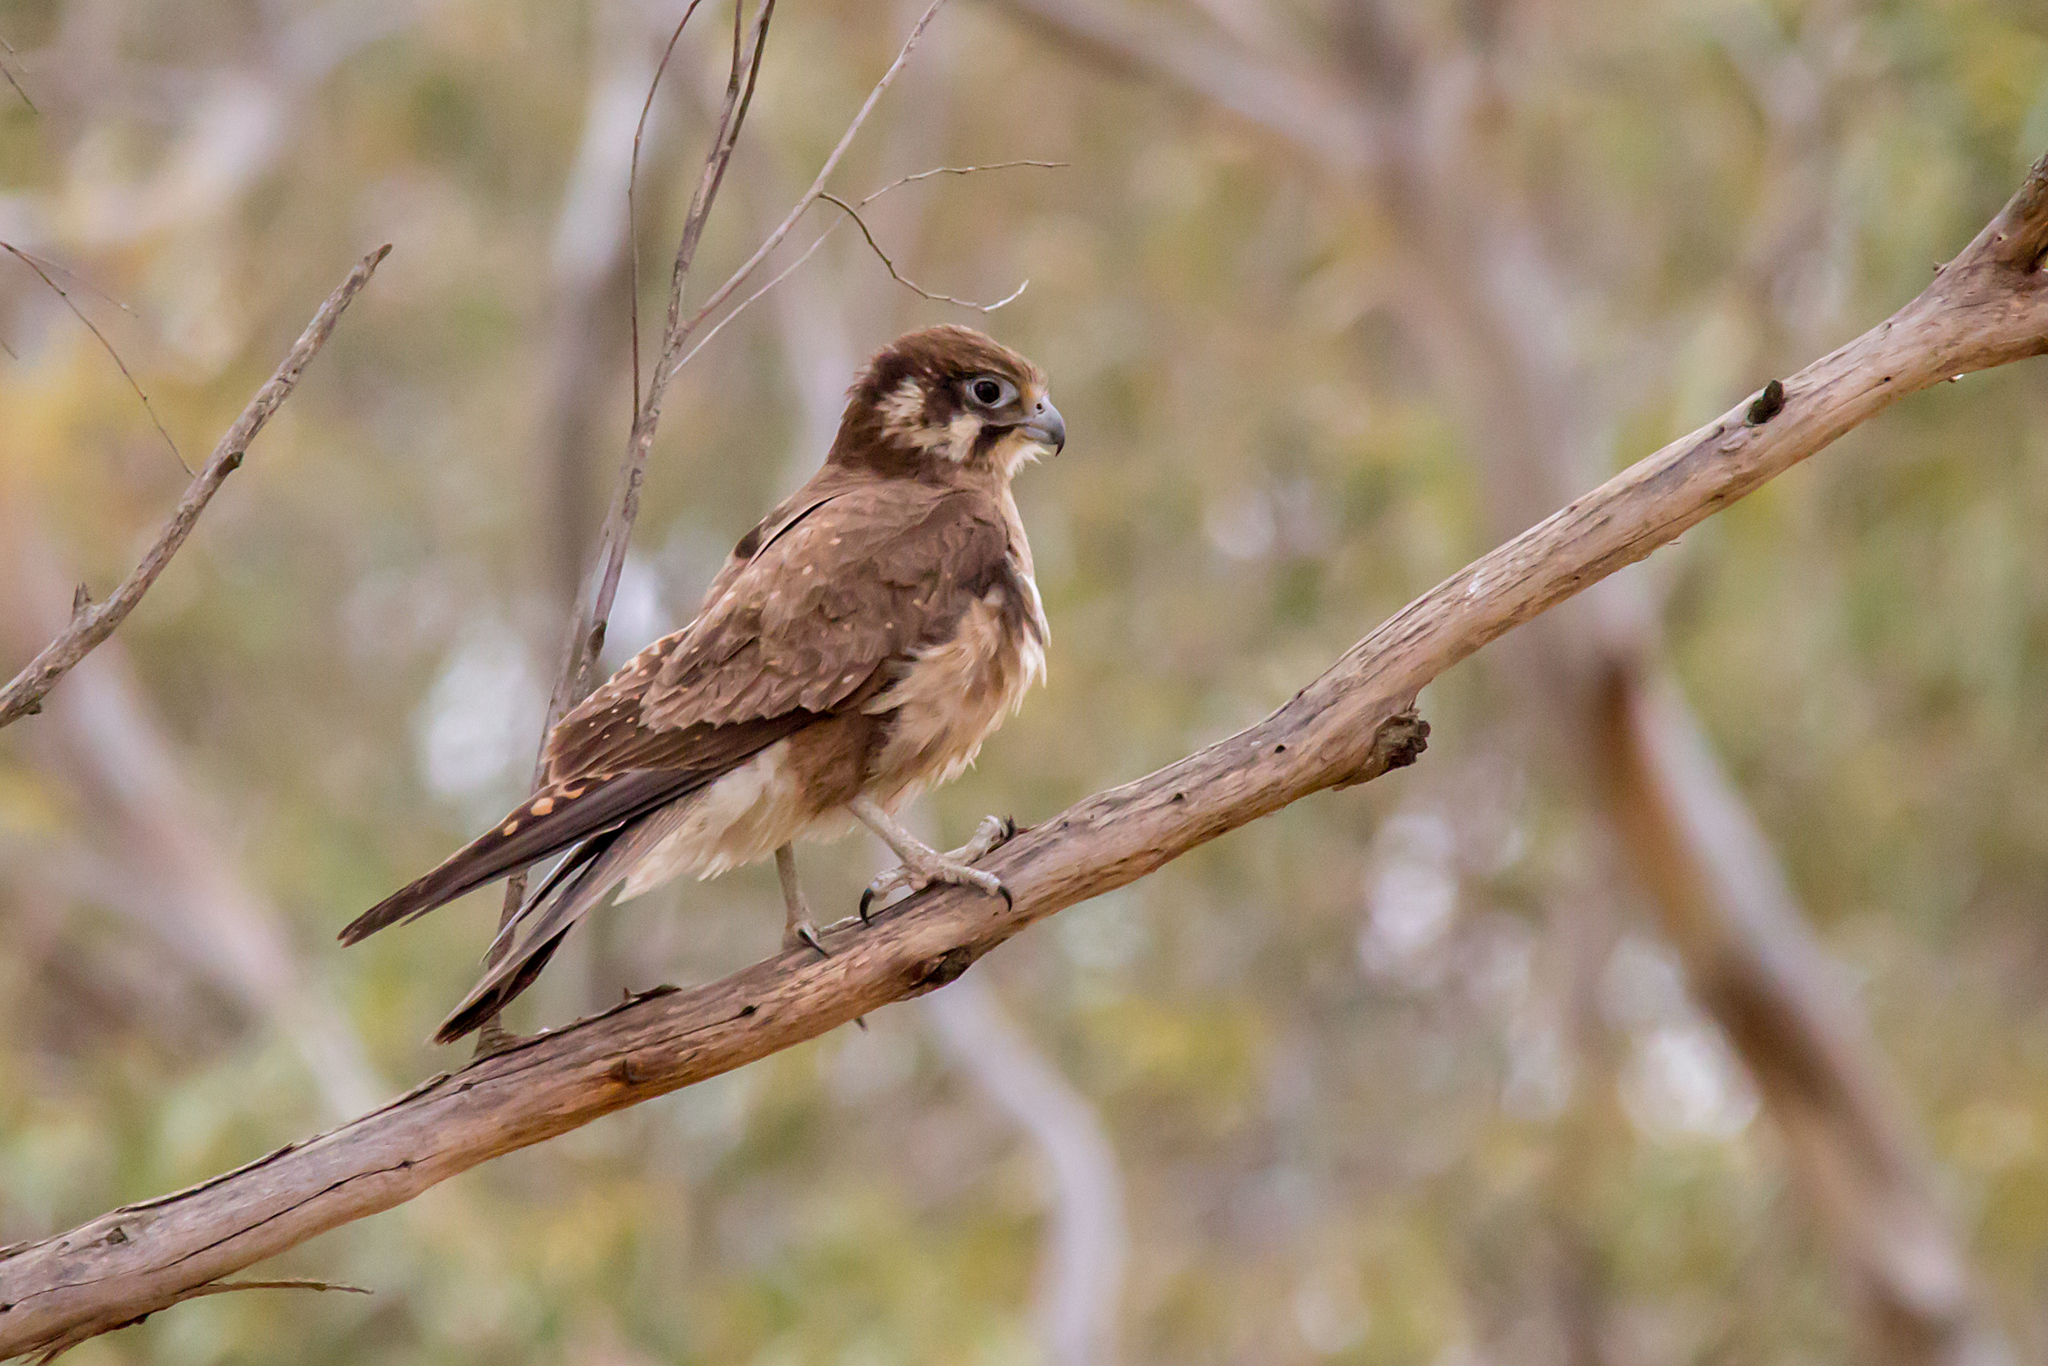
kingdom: Animalia
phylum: Chordata
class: Aves
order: Falconiformes
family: Falconidae
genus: Falco
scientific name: Falco berigora
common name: Brown falcon
